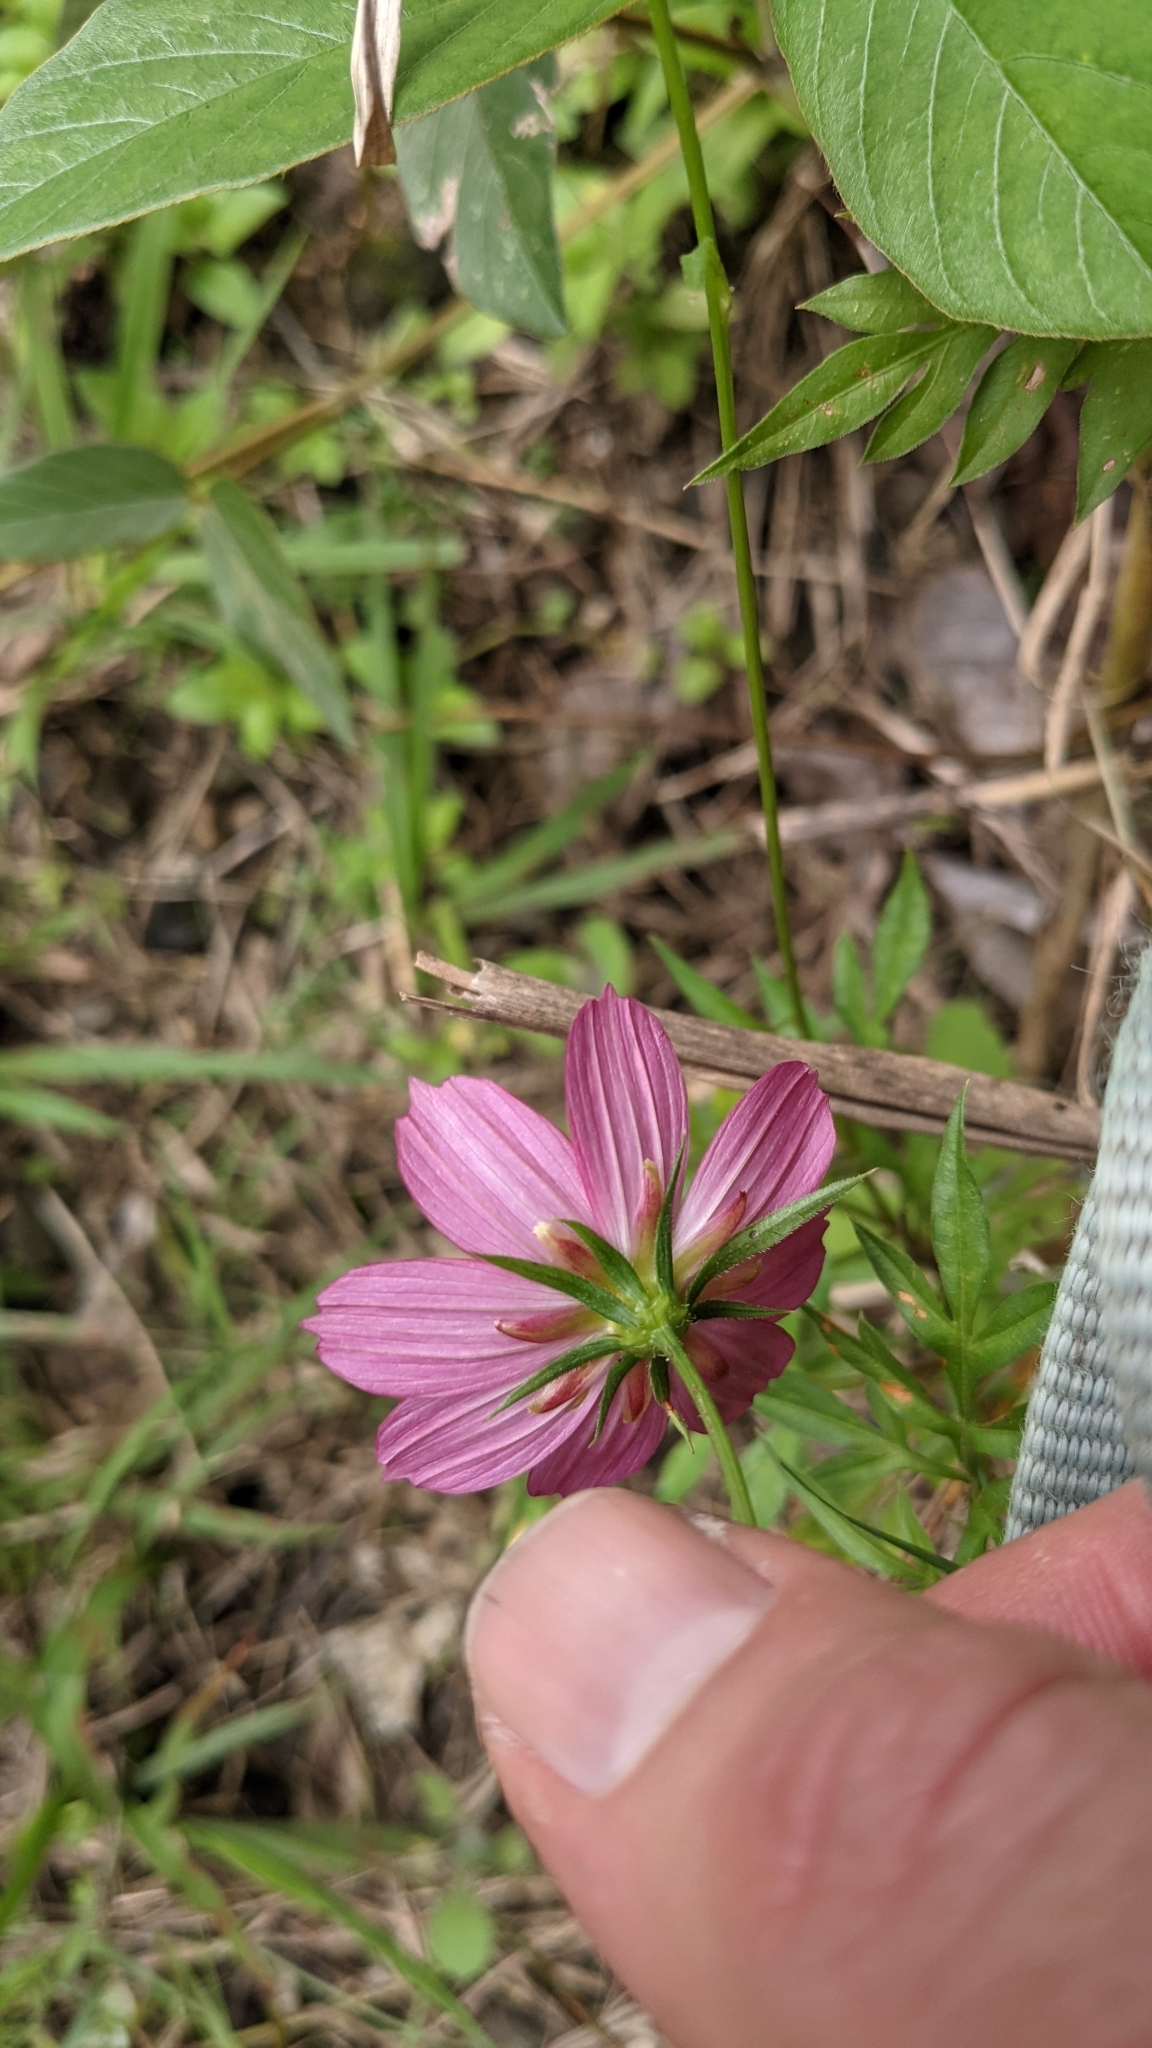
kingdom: Plantae
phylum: Tracheophyta
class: Magnoliopsida
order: Asterales
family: Asteraceae
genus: Cosmos
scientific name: Cosmos caudatus
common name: Wild cosmos
